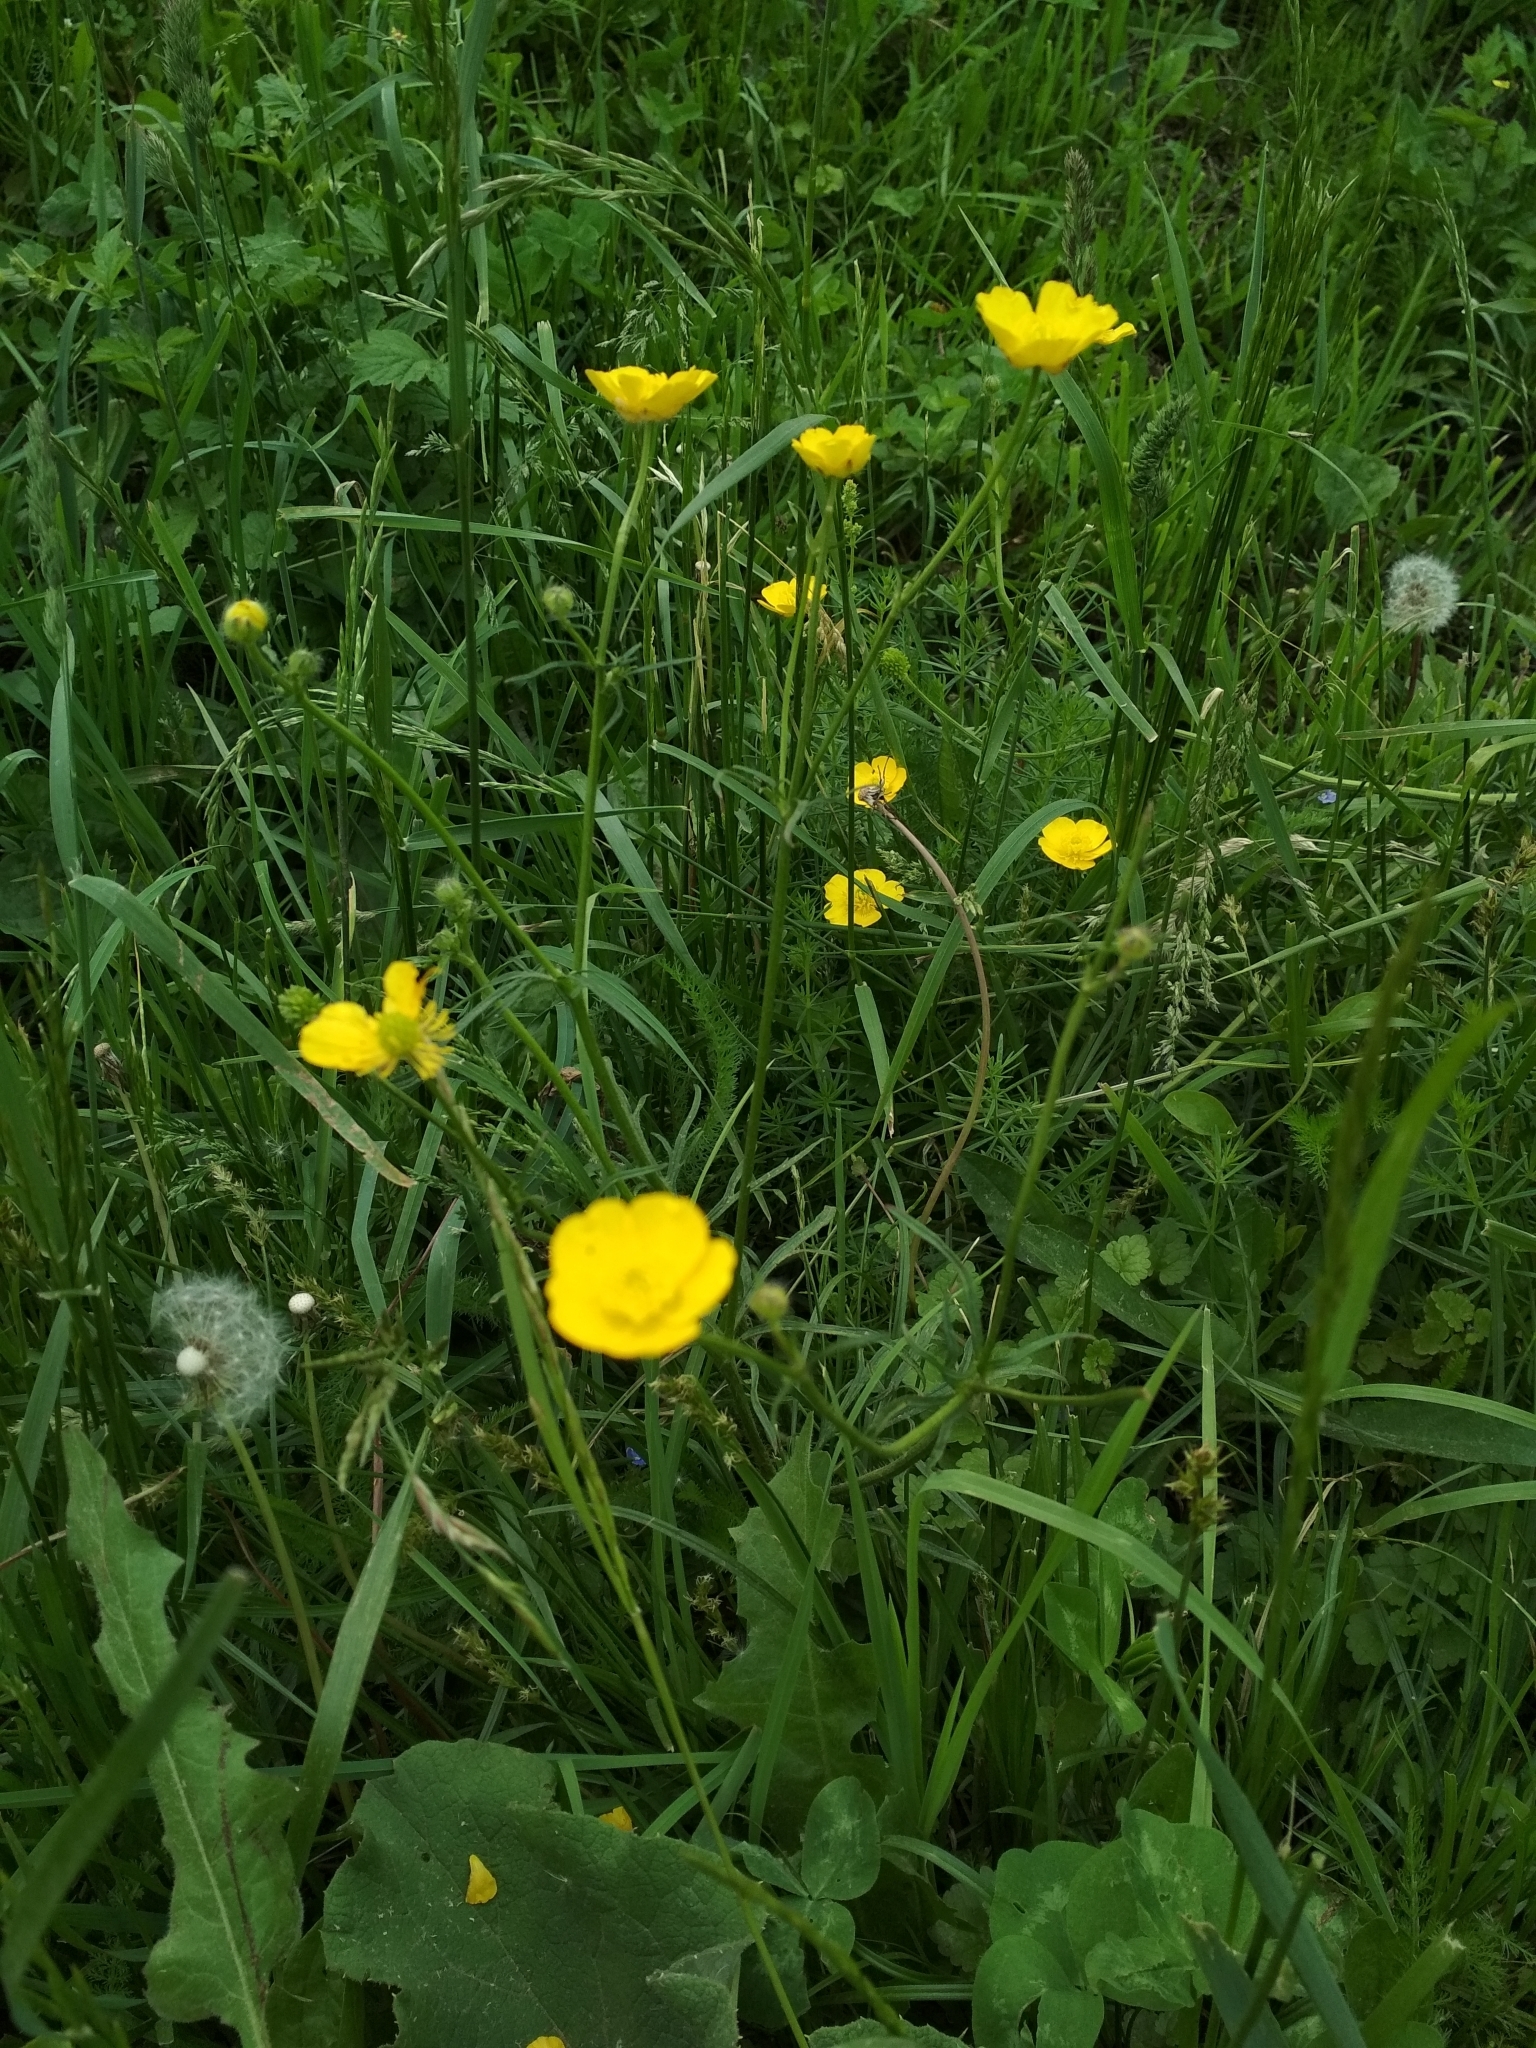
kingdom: Plantae
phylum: Tracheophyta
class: Magnoliopsida
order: Ranunculales
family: Ranunculaceae
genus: Ranunculus
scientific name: Ranunculus polyanthemos
